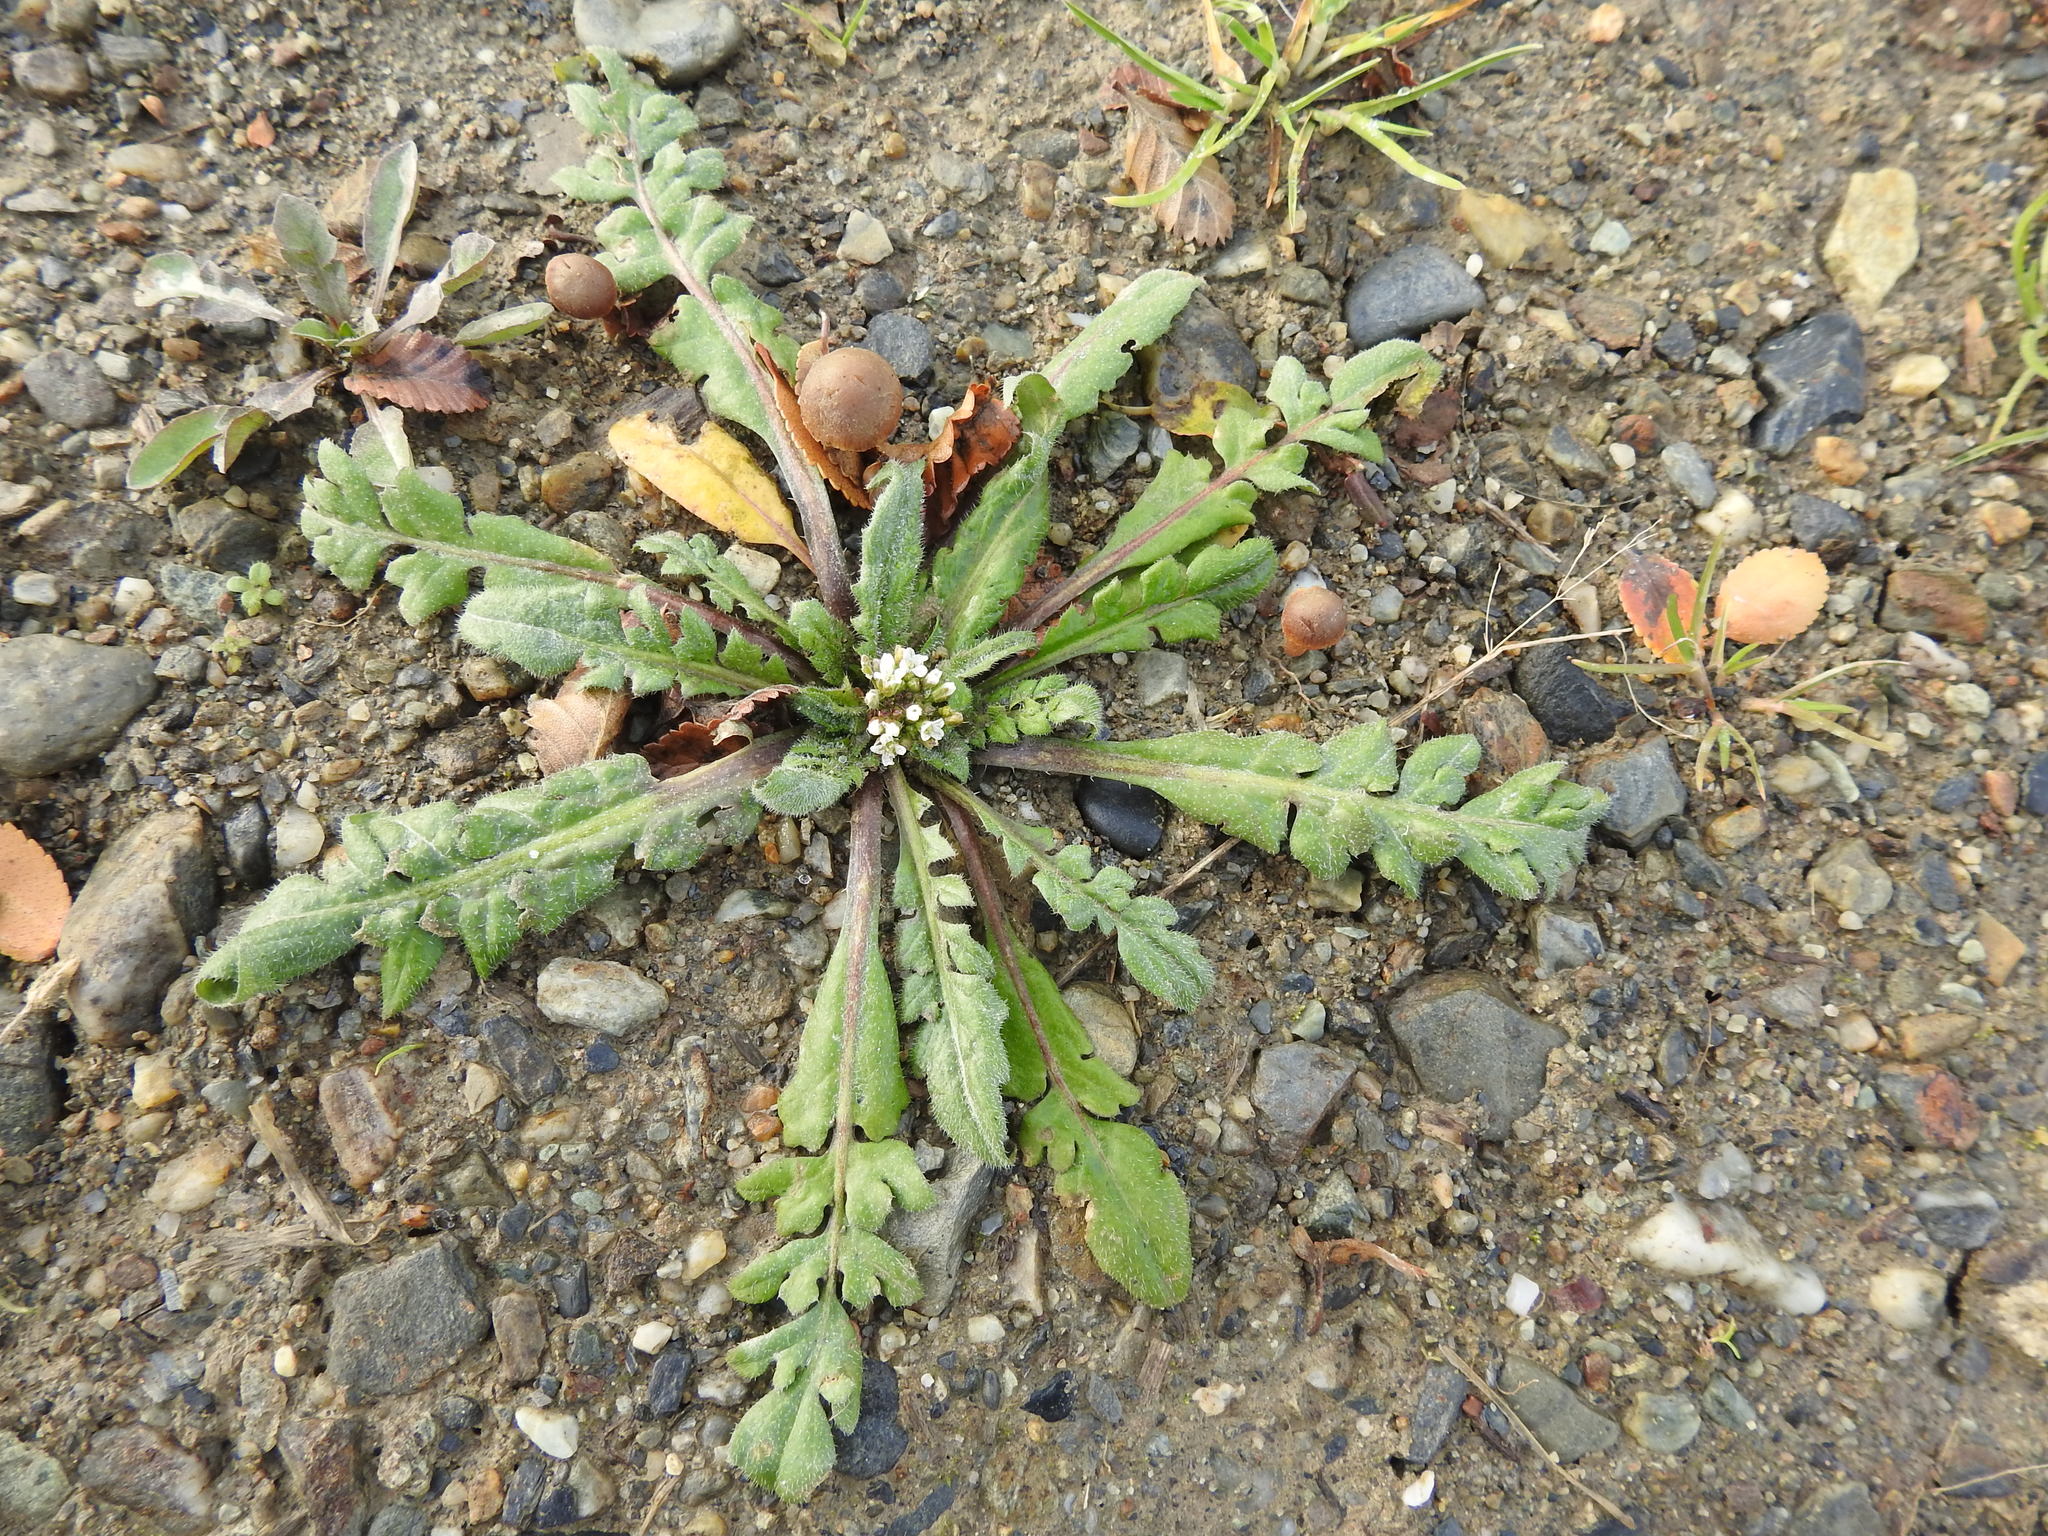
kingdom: Plantae
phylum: Tracheophyta
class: Magnoliopsida
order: Brassicales
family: Brassicaceae
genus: Capsella
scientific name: Capsella bursa-pastoris
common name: Shepherd's purse
